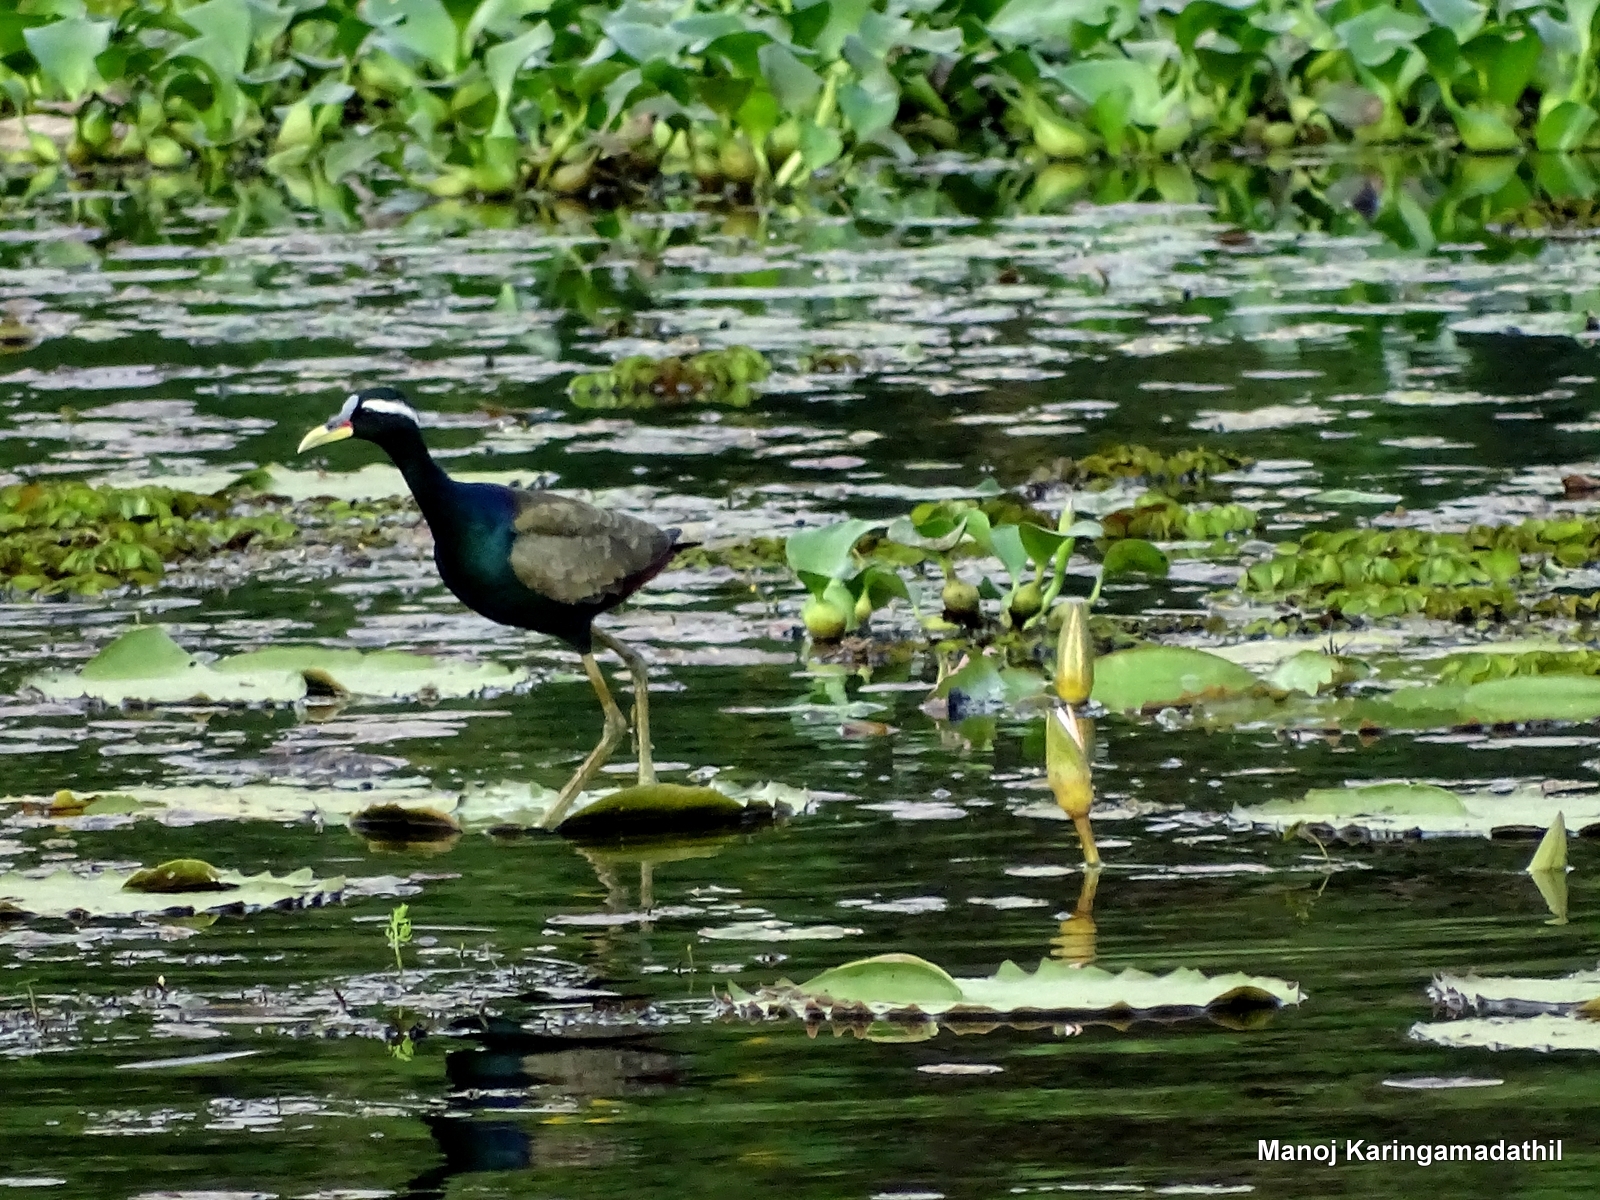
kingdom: Animalia
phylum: Chordata
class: Aves
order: Charadriiformes
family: Jacanidae
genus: Metopidius
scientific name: Metopidius indicus
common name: Bronze-winged jacana
